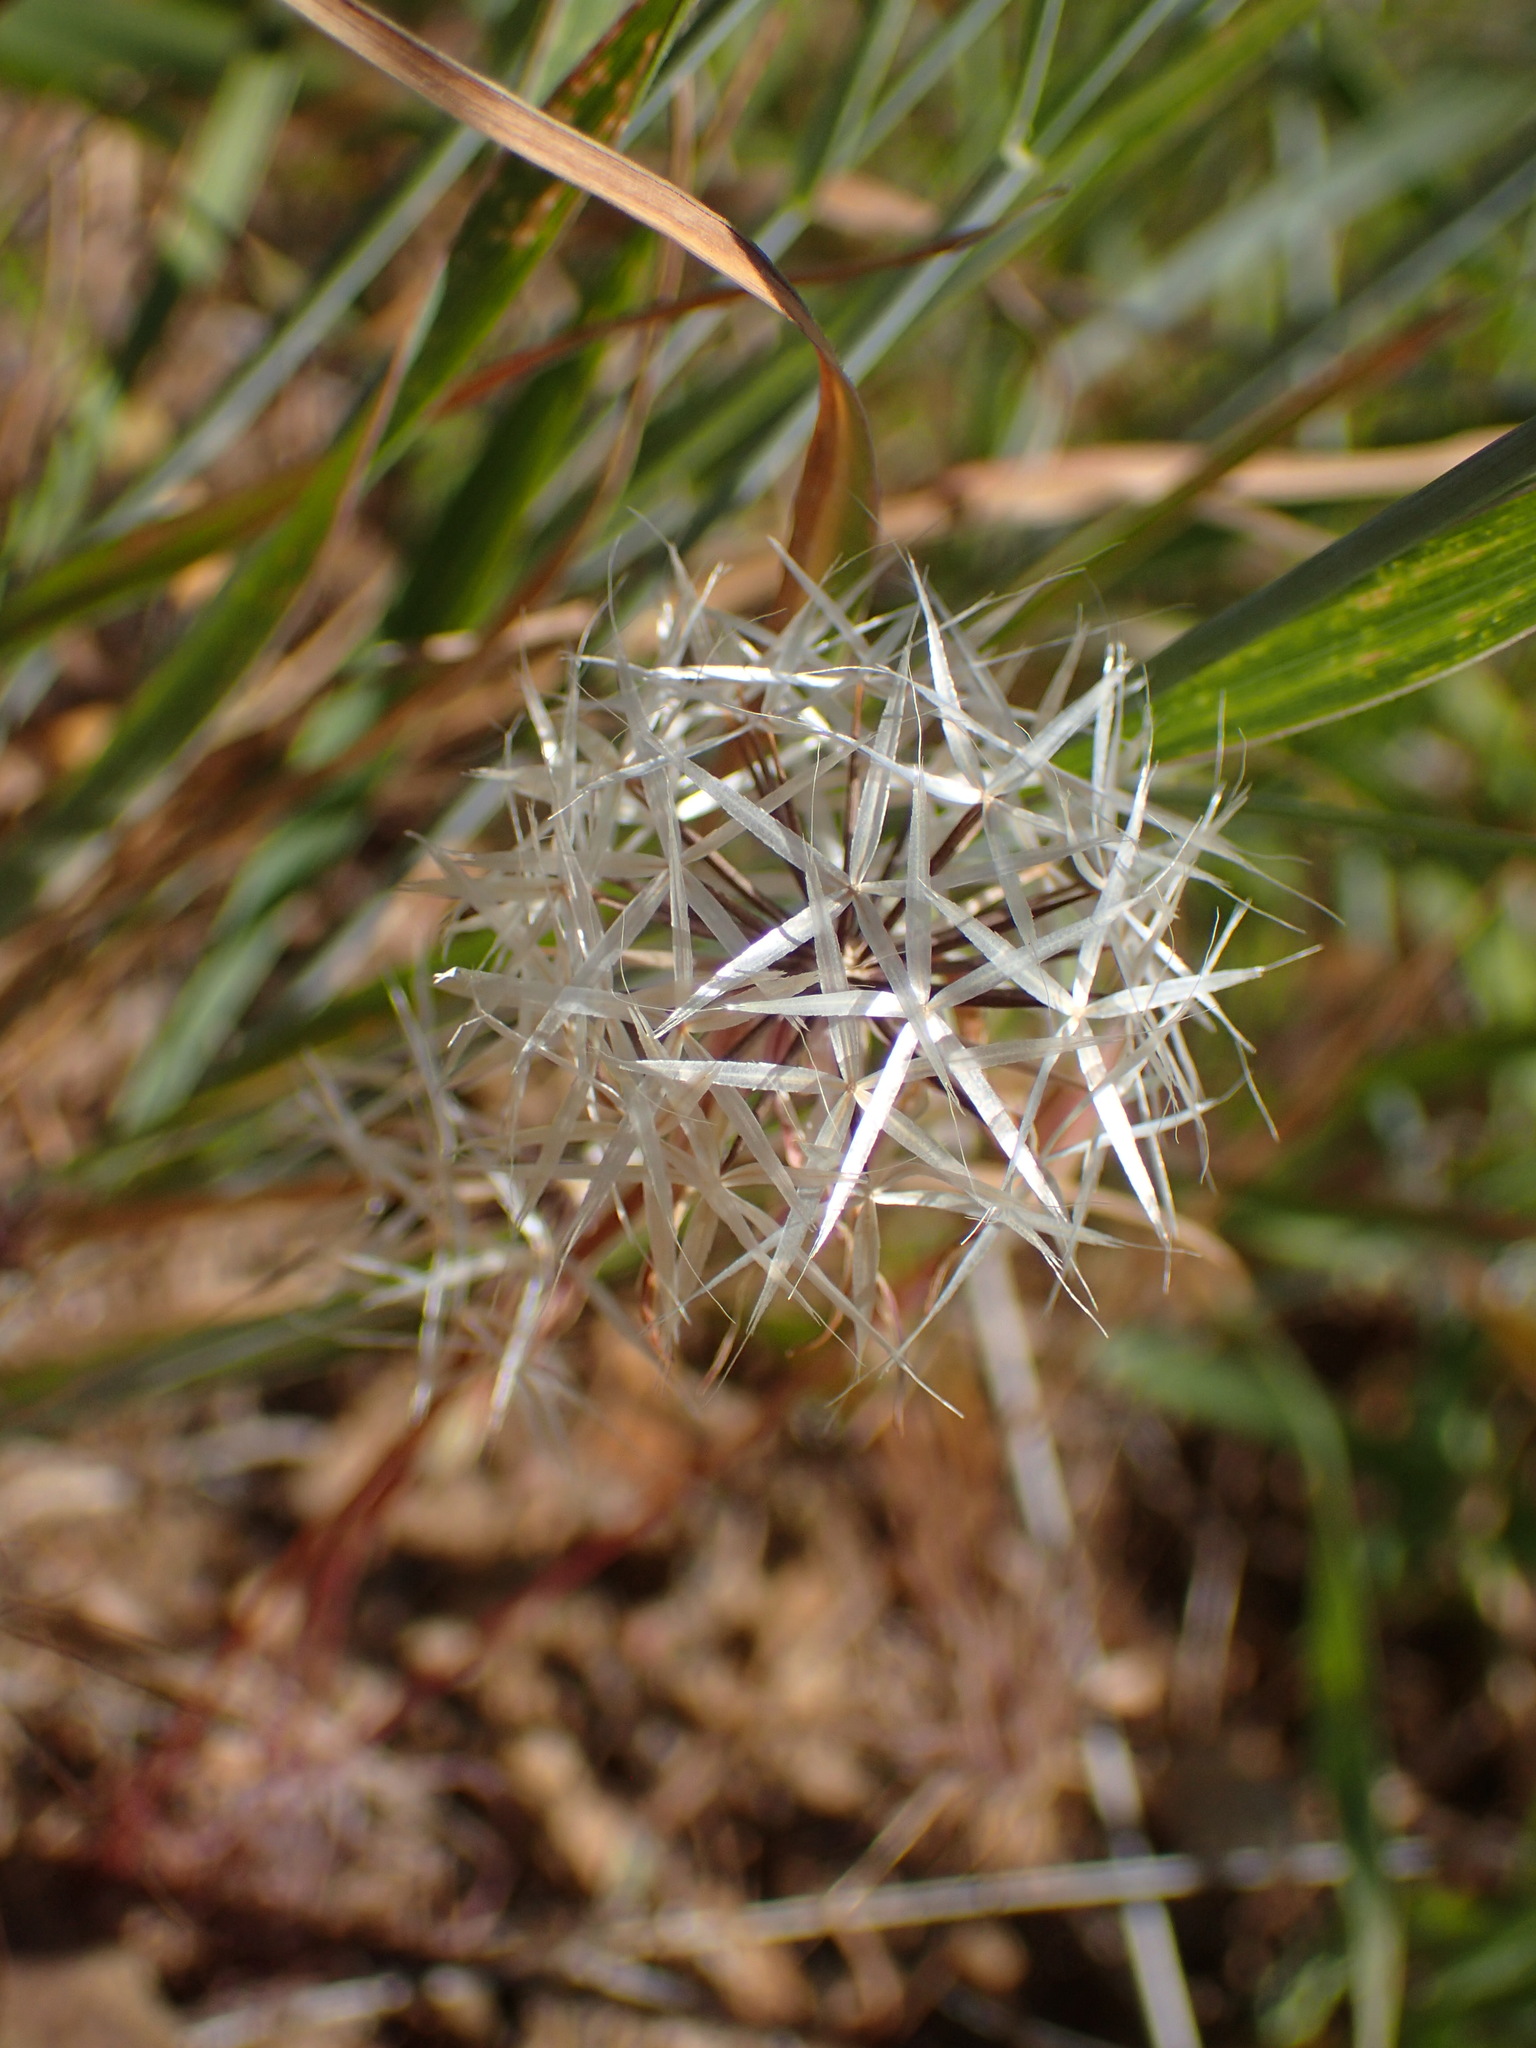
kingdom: Plantae
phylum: Tracheophyta
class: Magnoliopsida
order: Asterales
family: Asteraceae
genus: Microseris
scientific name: Microseris lindleyi
